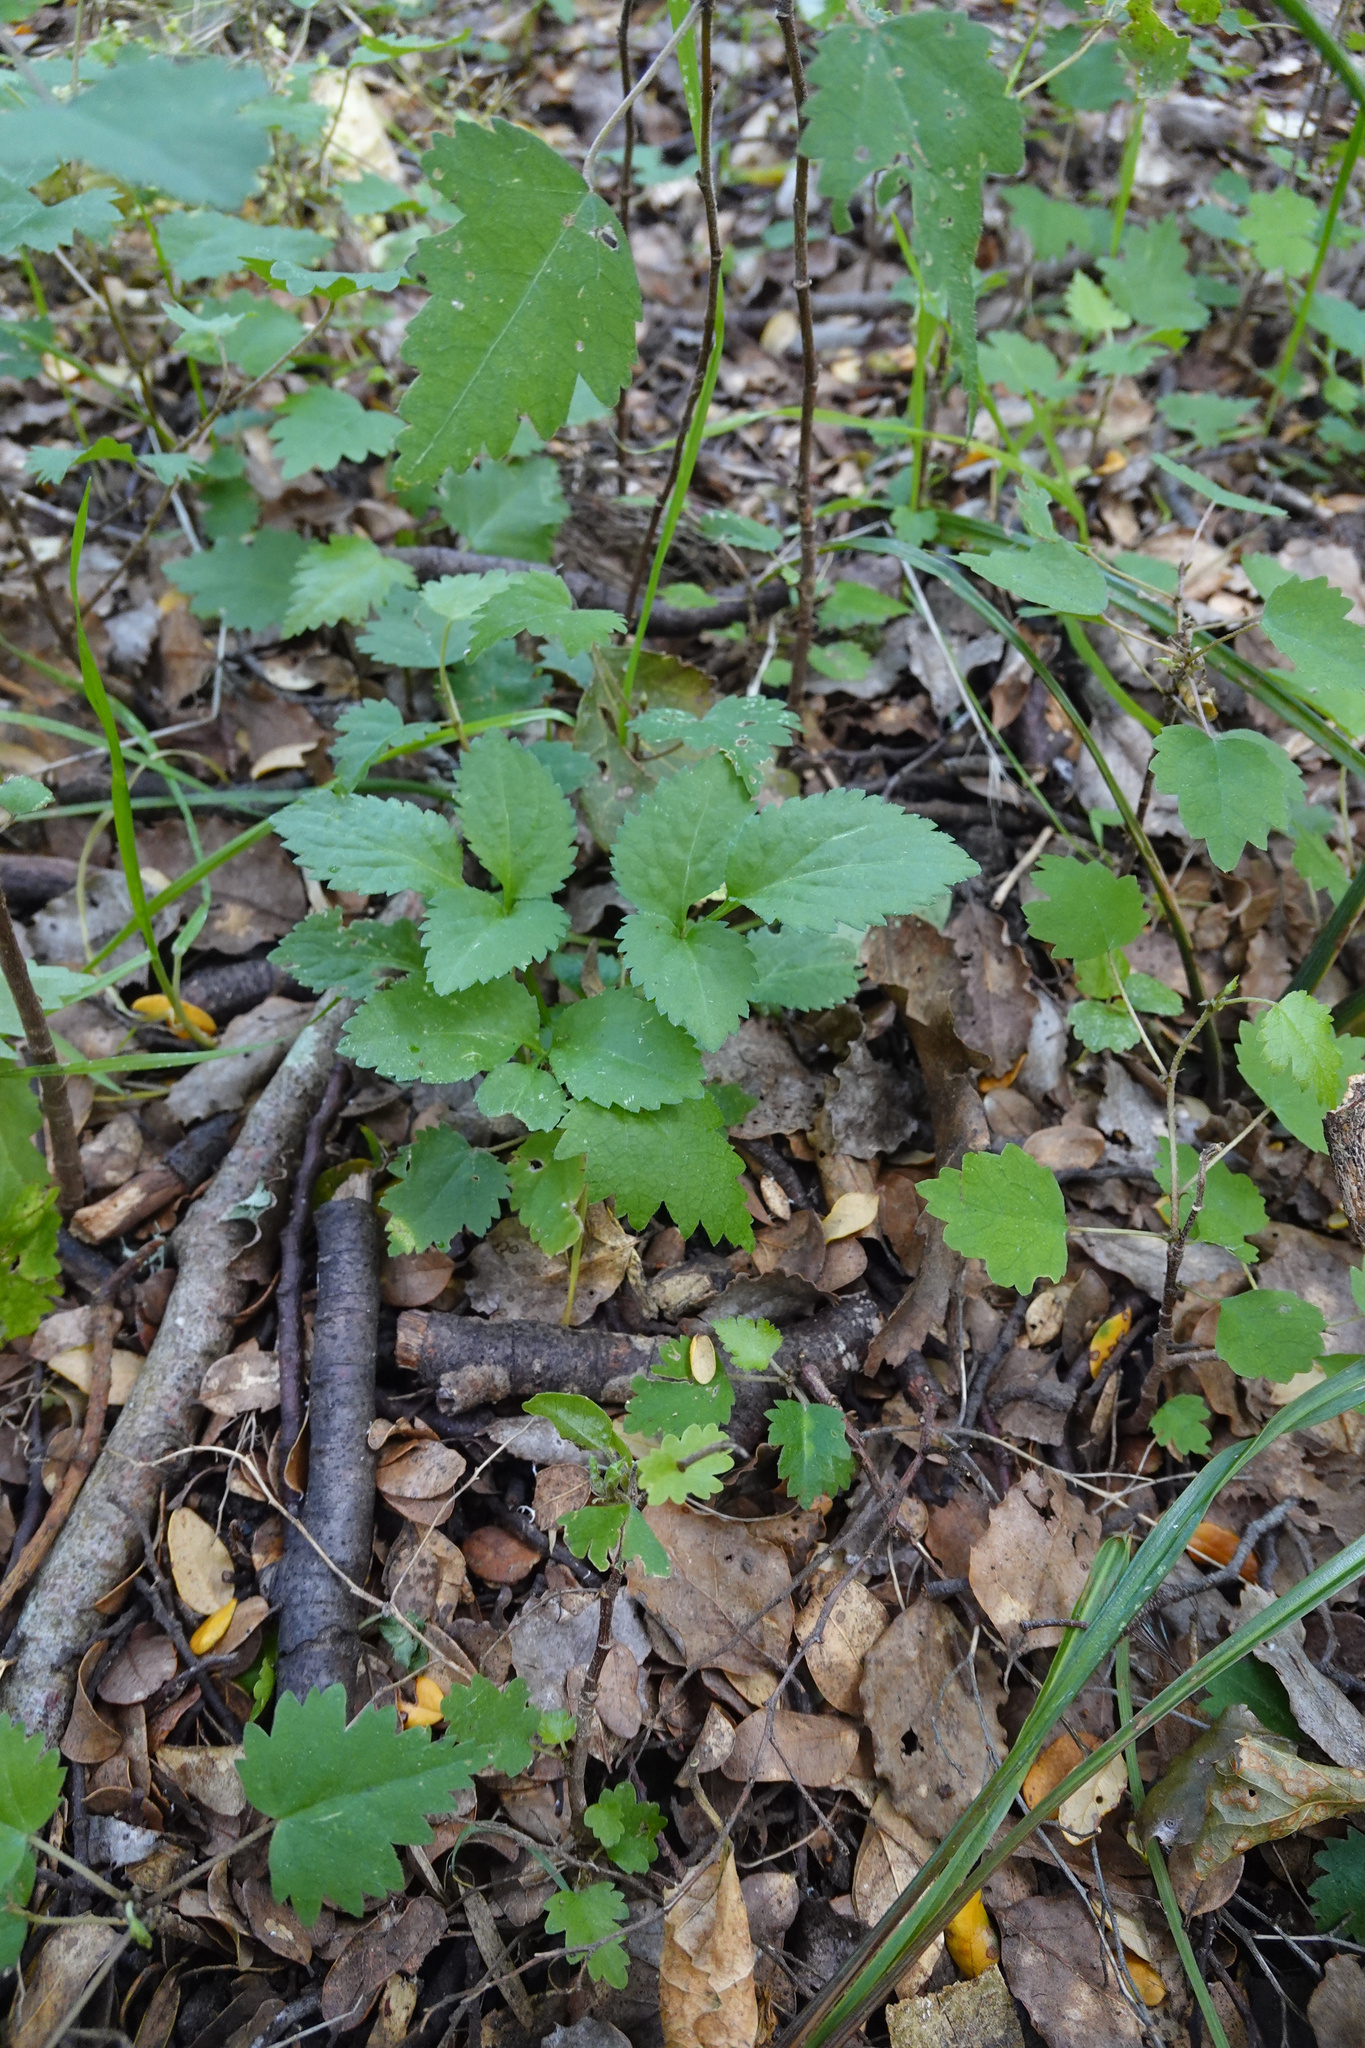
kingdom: Plantae
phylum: Tracheophyta
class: Magnoliopsida
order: Dipsacales
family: Viburnaceae
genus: Sambucus
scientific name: Sambucus nigra
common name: Elder
